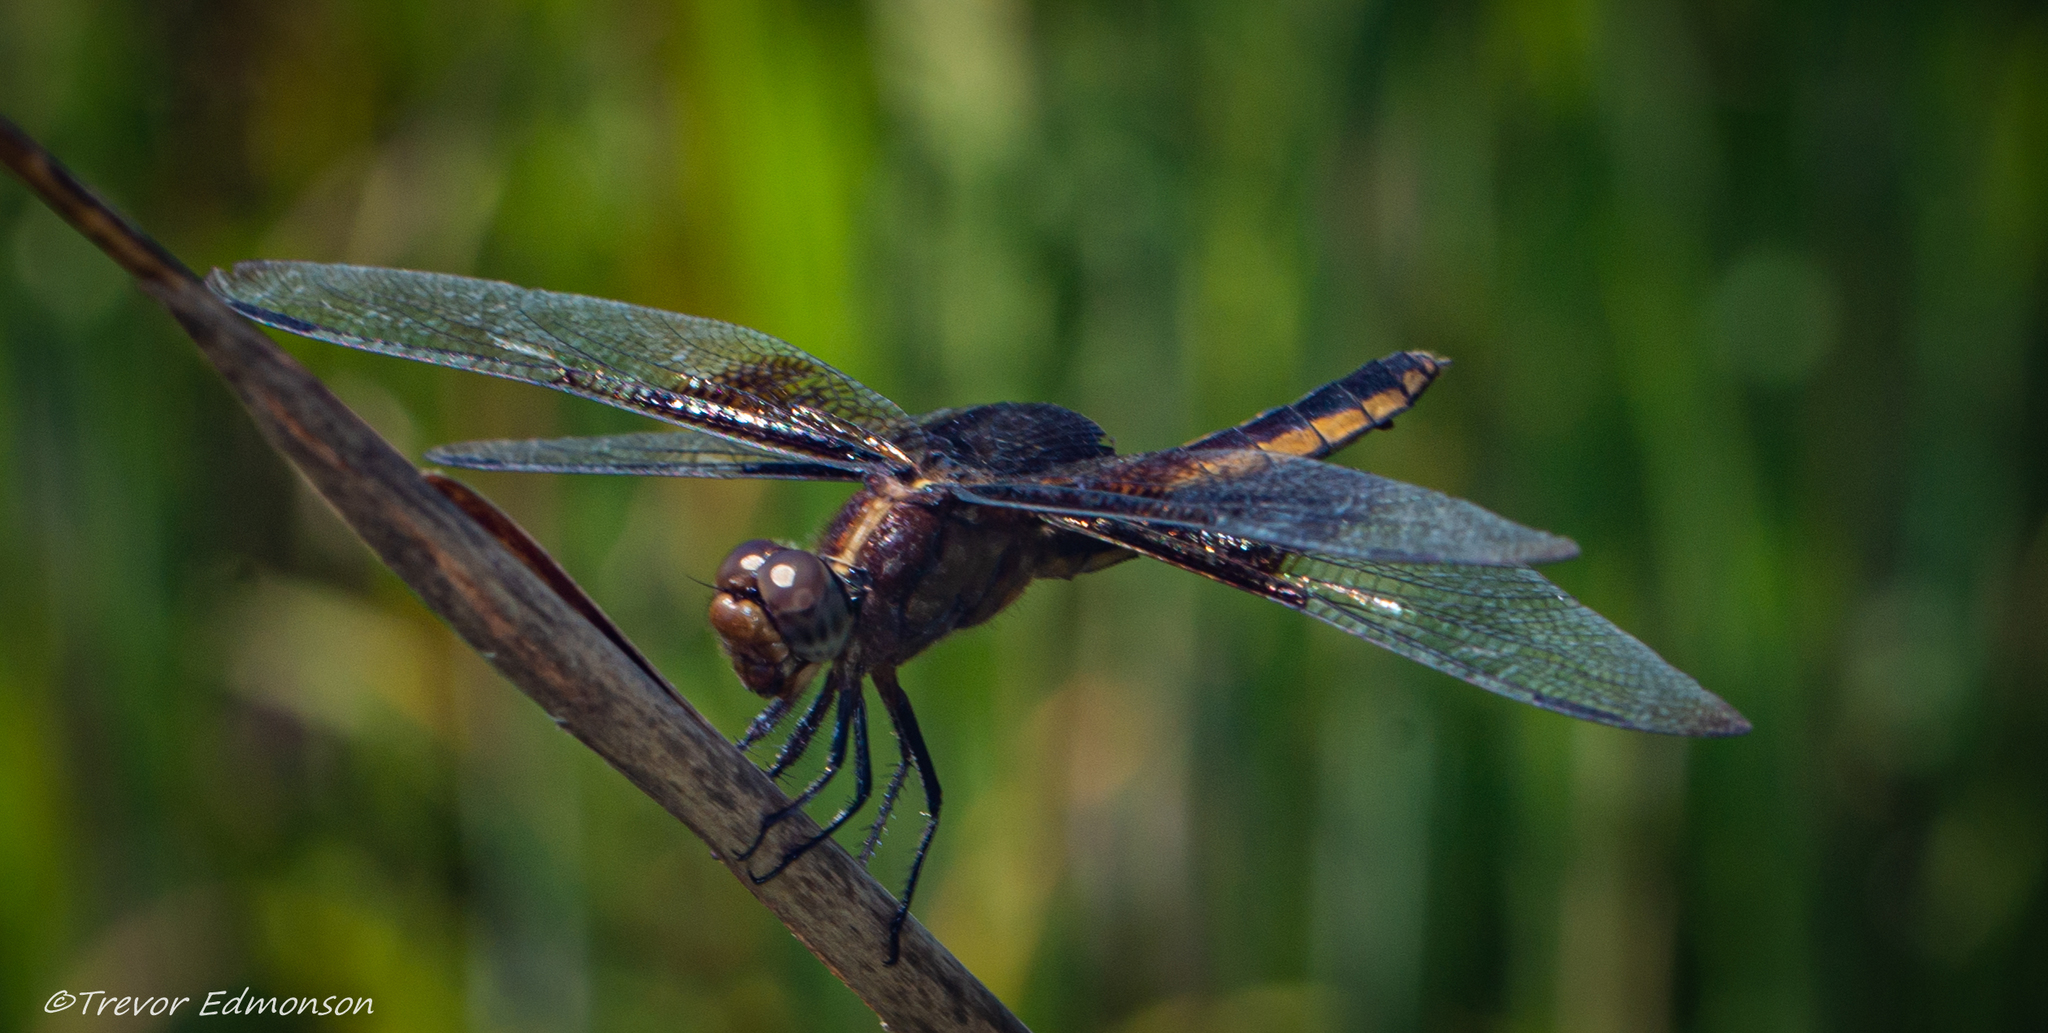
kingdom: Animalia
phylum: Arthropoda
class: Insecta
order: Odonata
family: Libellulidae
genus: Libellula
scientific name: Libellula luctuosa
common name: Widow skimmer
